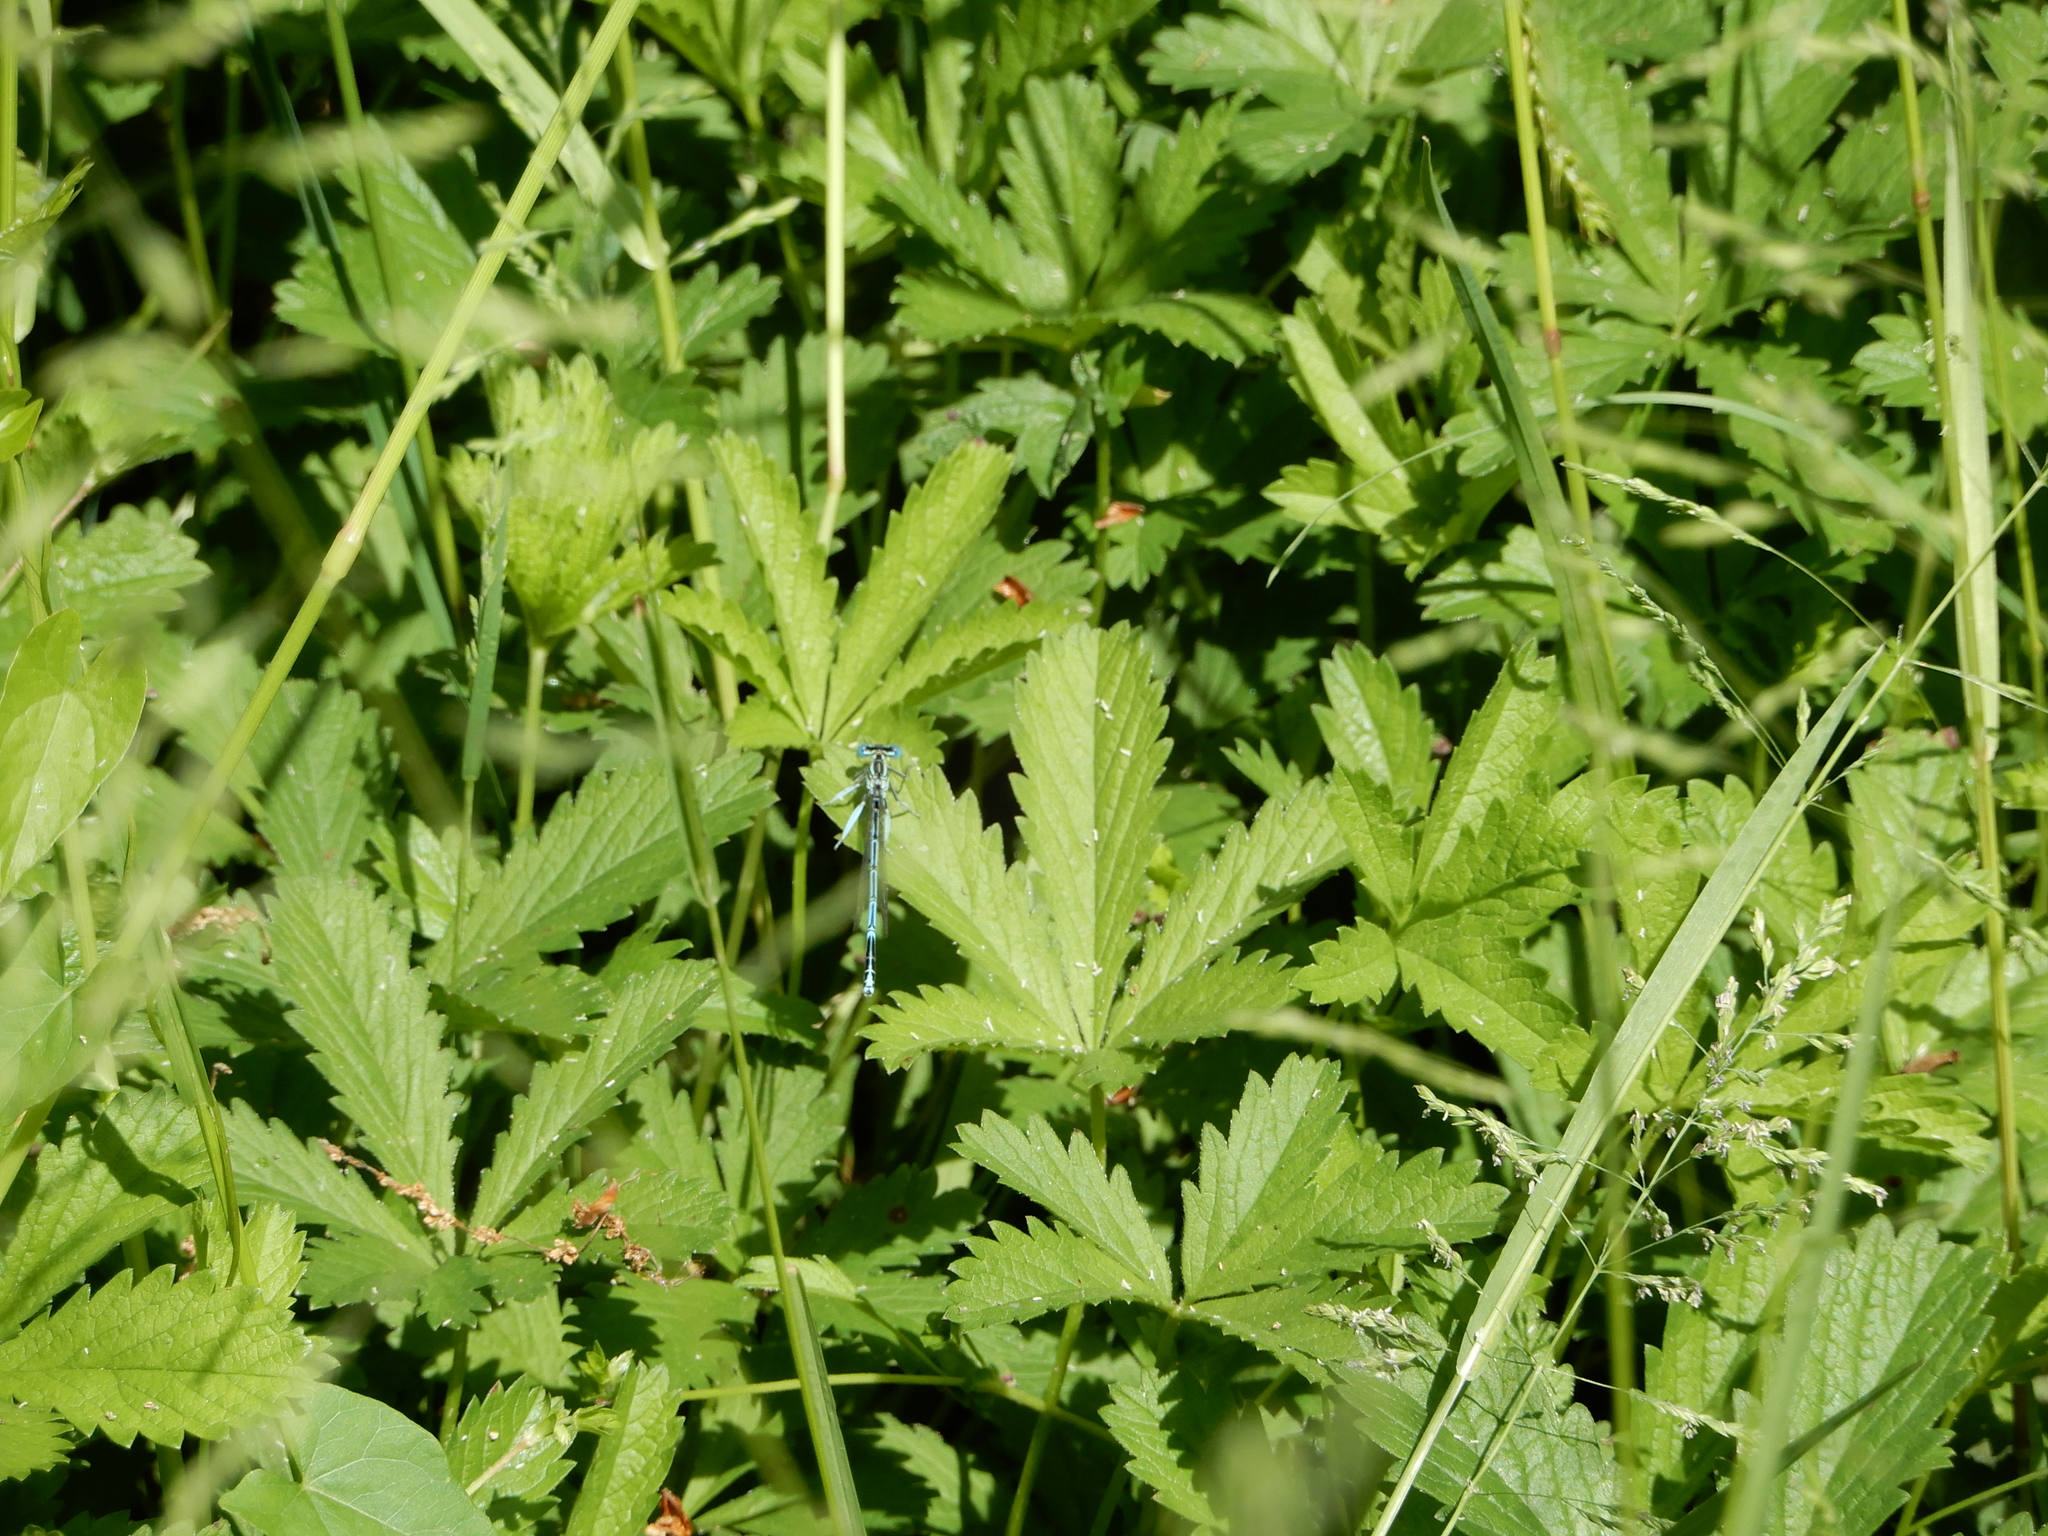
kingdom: Animalia
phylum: Arthropoda
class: Insecta
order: Odonata
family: Platycnemididae
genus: Platycnemis
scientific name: Platycnemis pennipes
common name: White-legged damselfly
